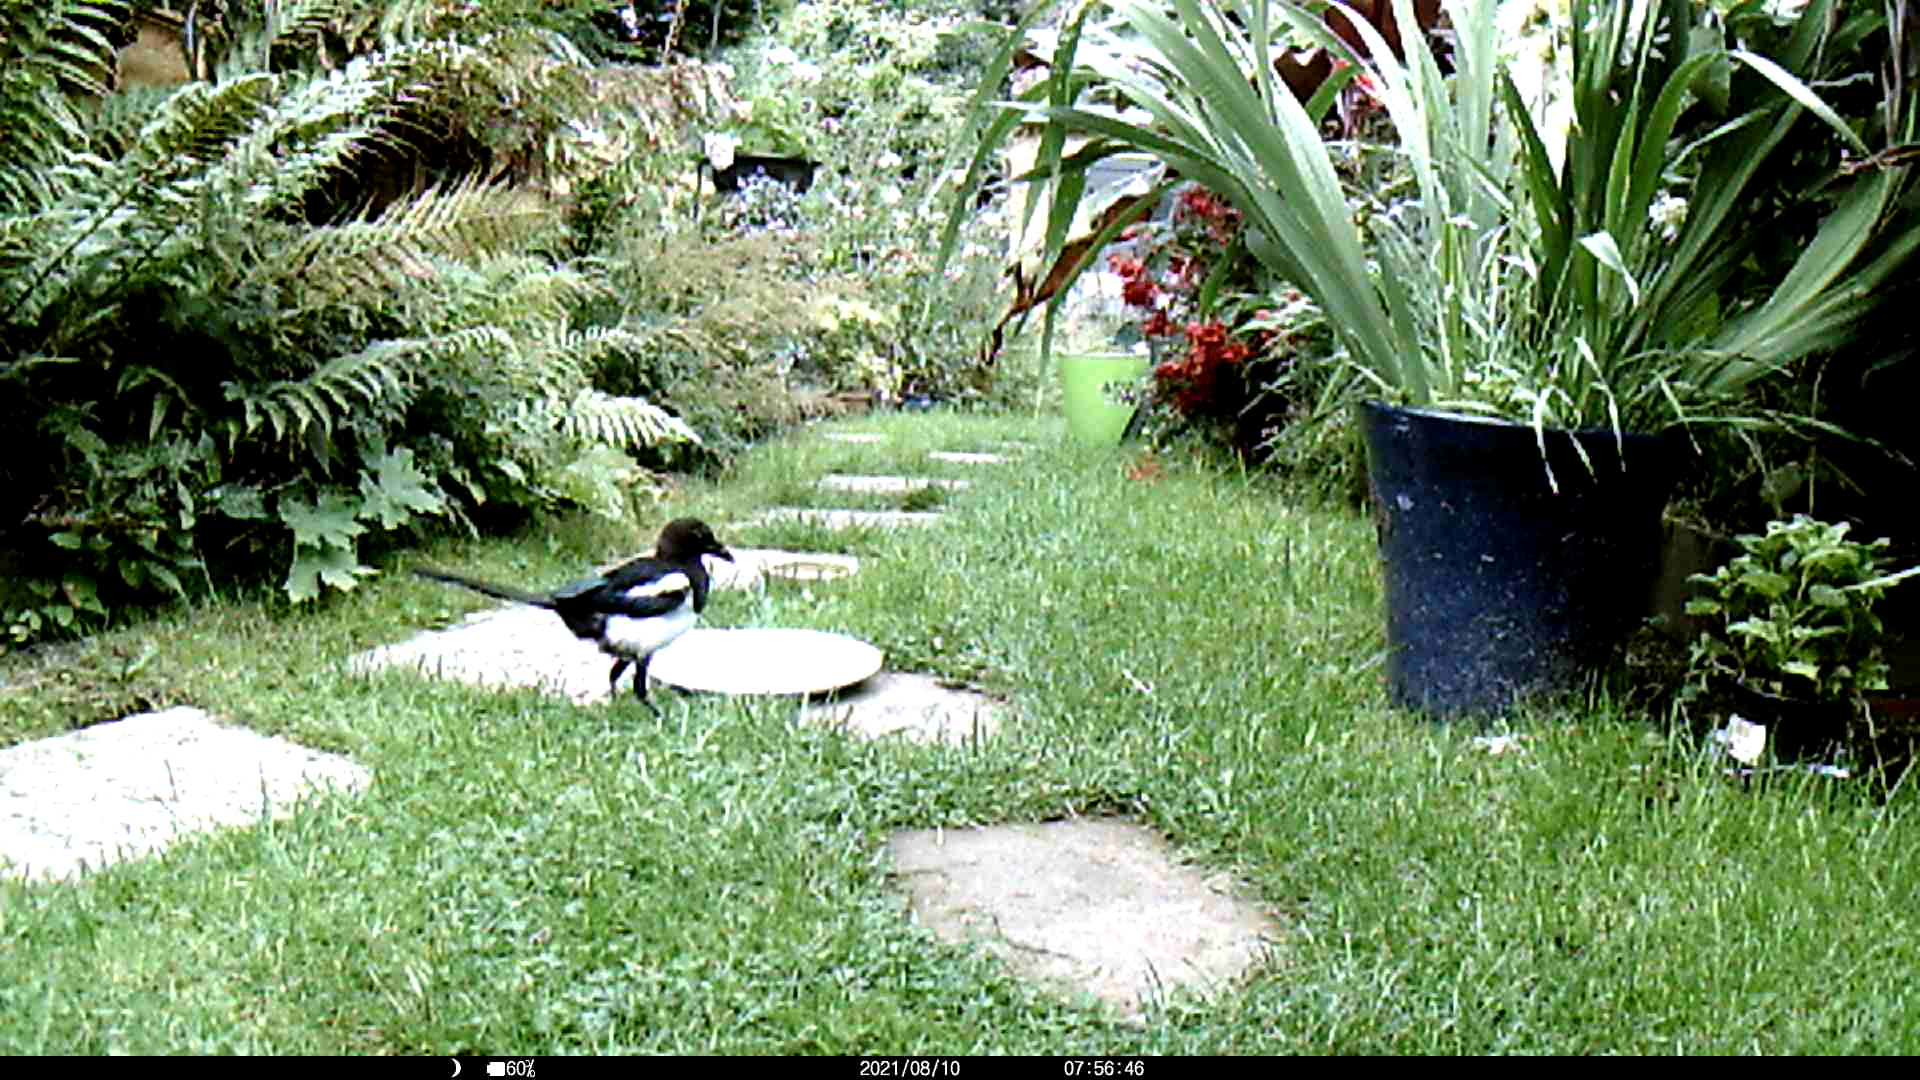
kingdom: Animalia
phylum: Chordata
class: Aves
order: Passeriformes
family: Corvidae
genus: Pica
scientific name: Pica pica
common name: Eurasian magpie
